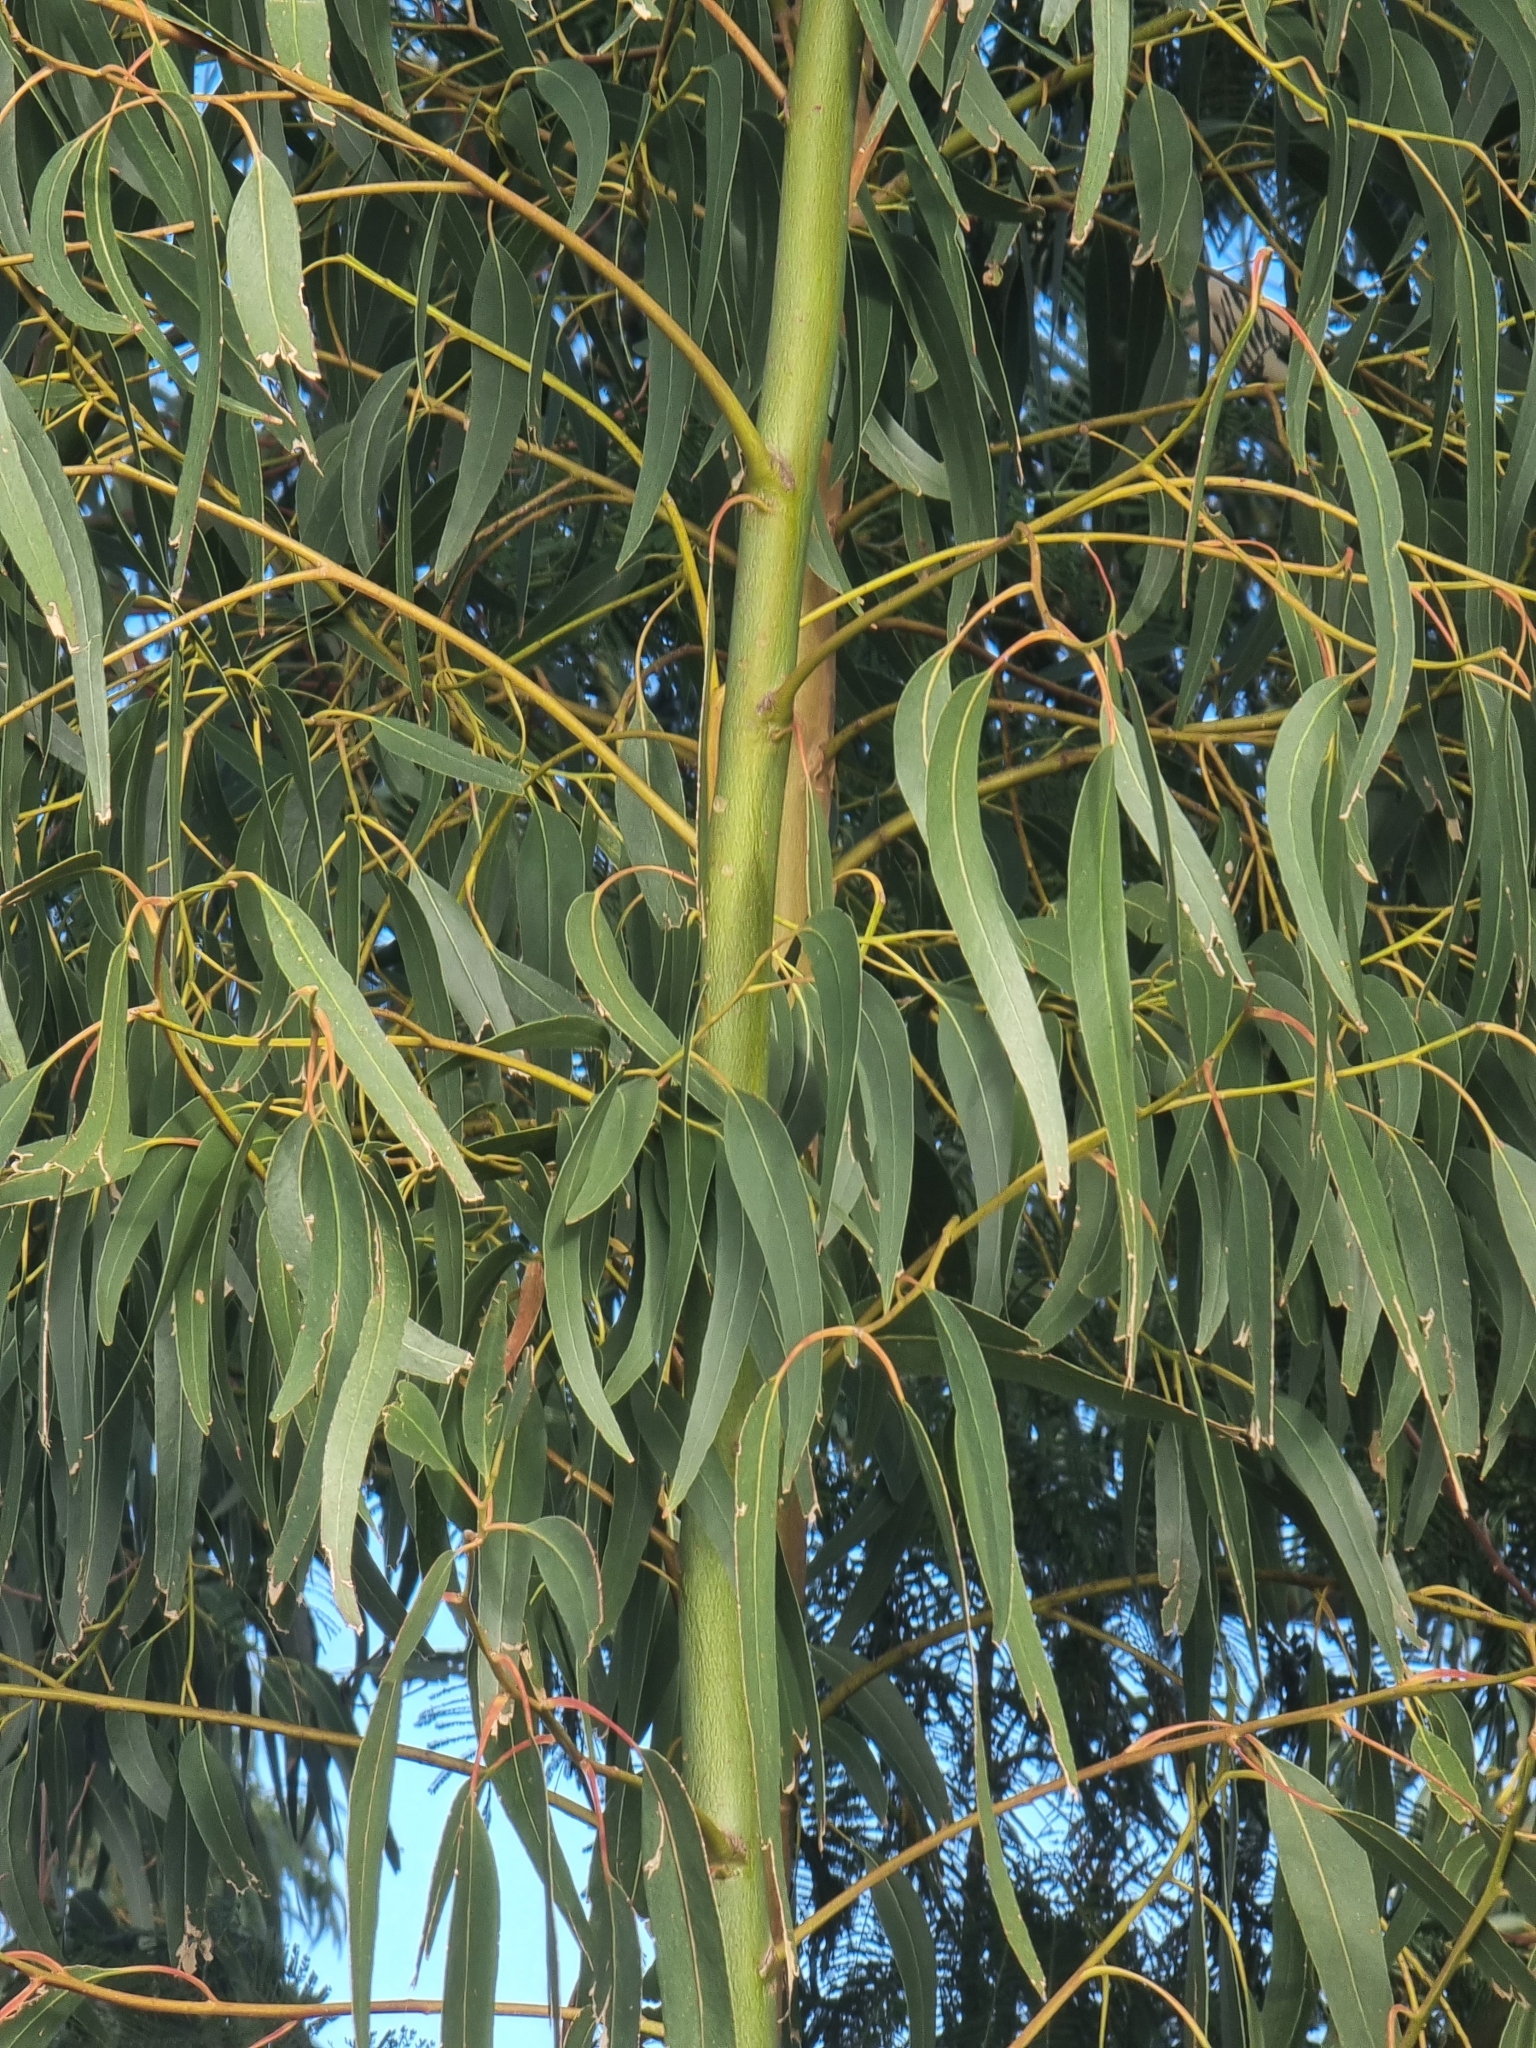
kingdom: Plantae
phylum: Tracheophyta
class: Magnoliopsida
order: Myrtales
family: Myrtaceae
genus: Eucalyptus
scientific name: Eucalyptus globulus
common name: Southern blue-gum
